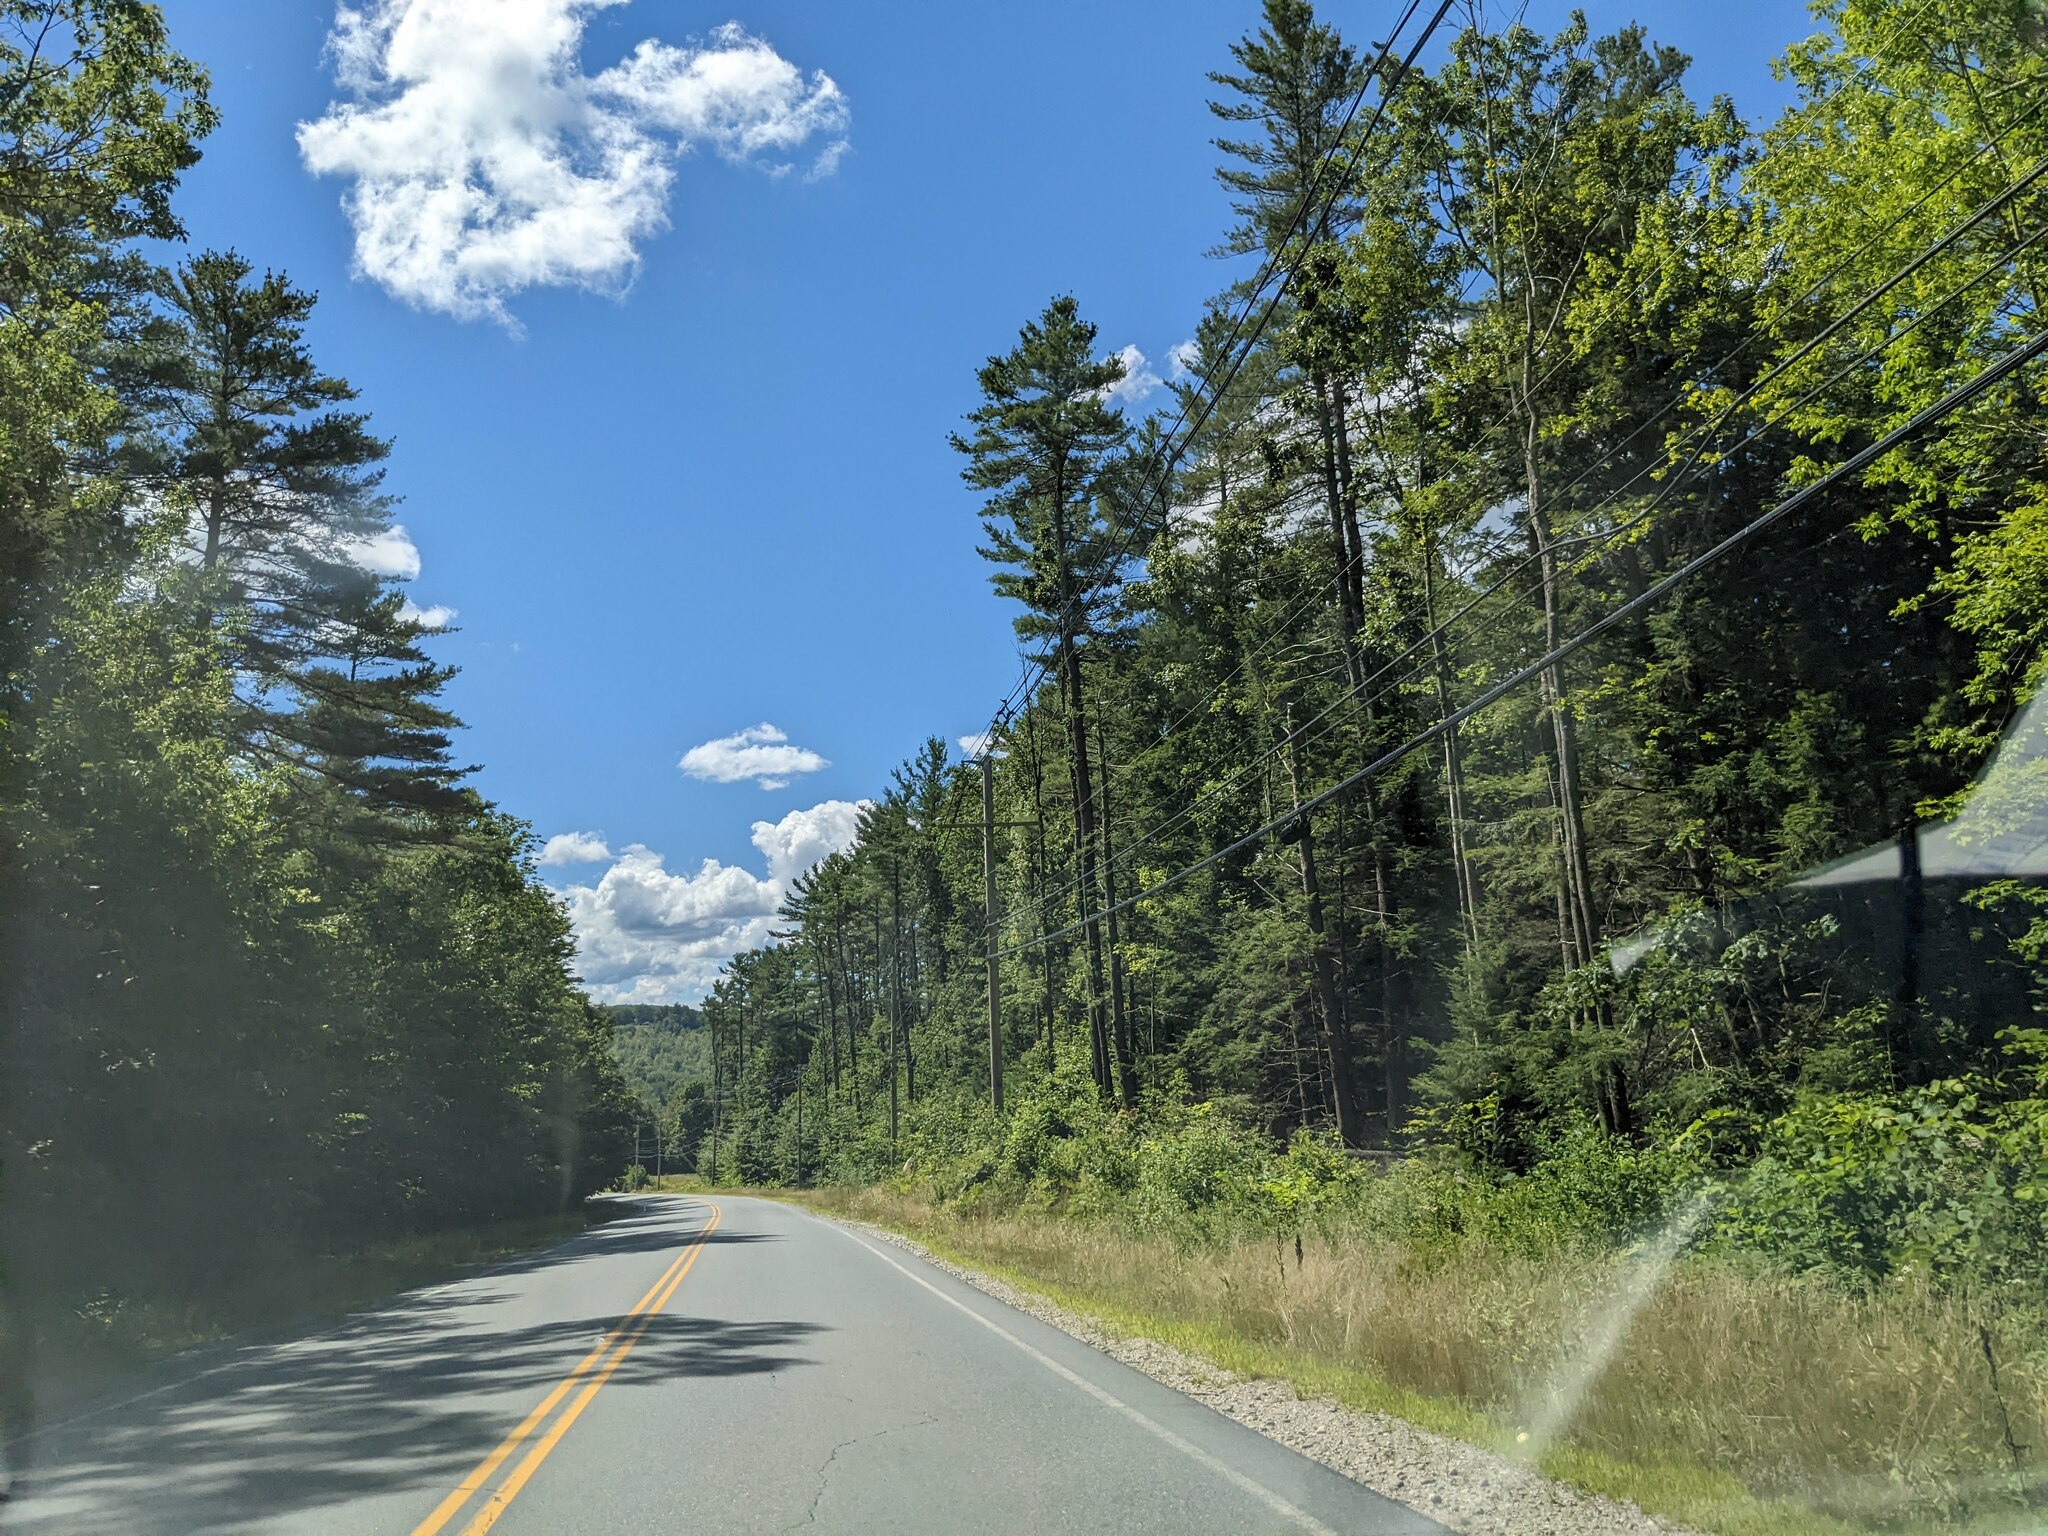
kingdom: Plantae
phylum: Tracheophyta
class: Pinopsida
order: Pinales
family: Pinaceae
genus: Pinus
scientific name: Pinus strobus
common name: Weymouth pine
